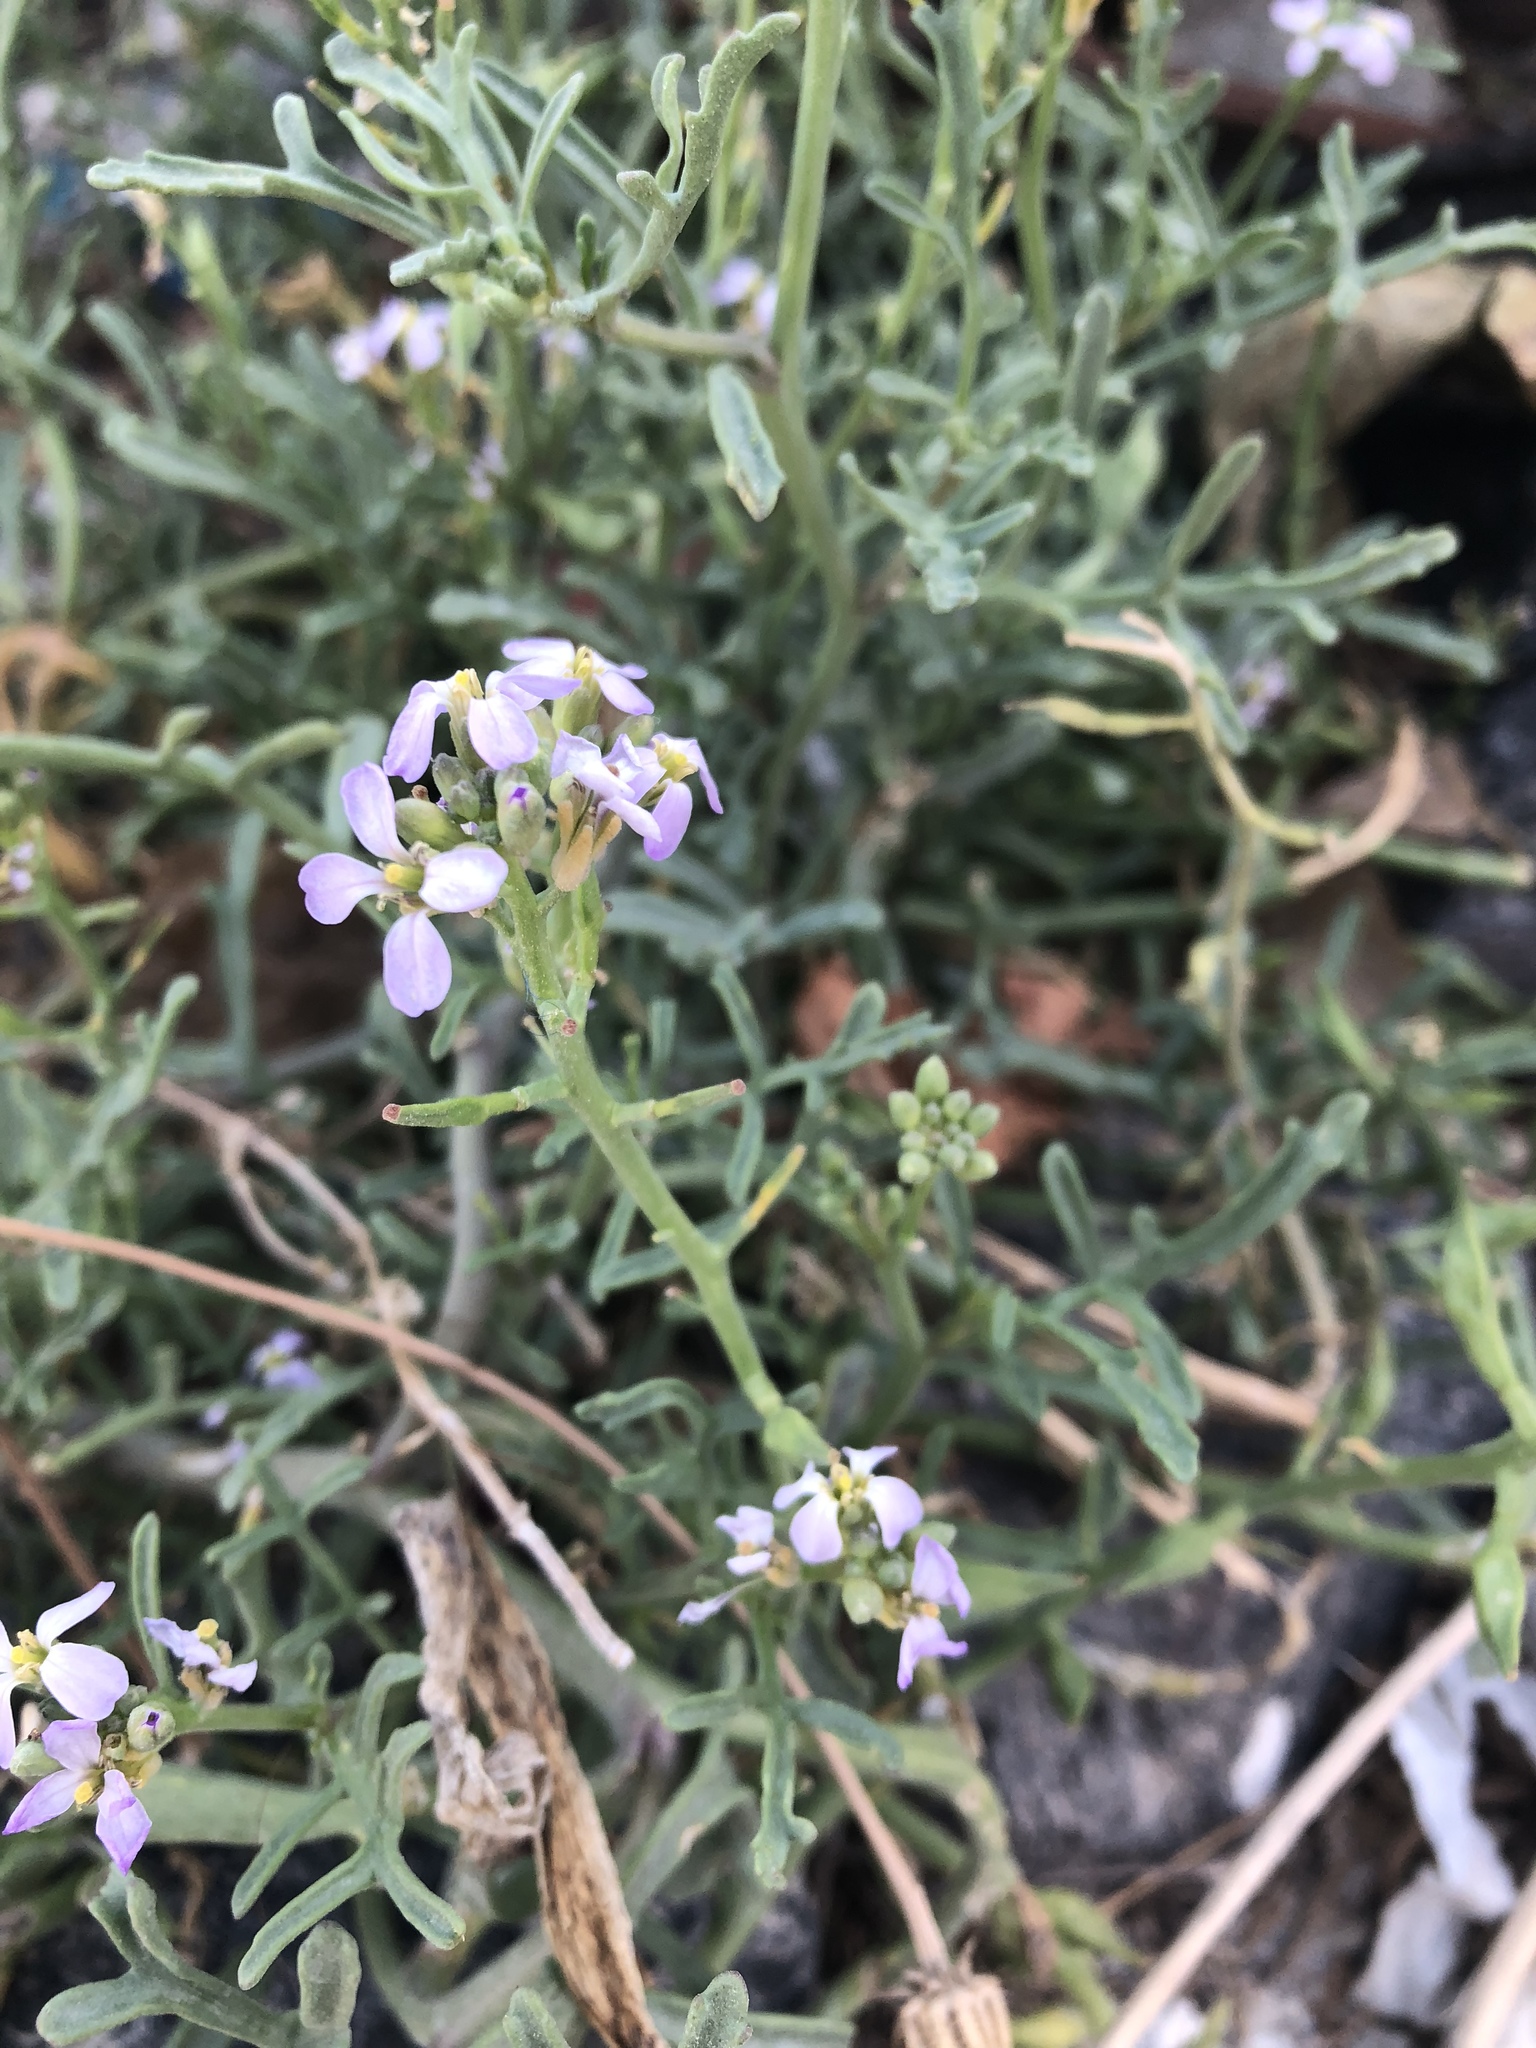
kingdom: Plantae
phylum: Tracheophyta
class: Magnoliopsida
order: Brassicales
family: Brassicaceae
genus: Cakile
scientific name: Cakile maritima
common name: Sea rocket
